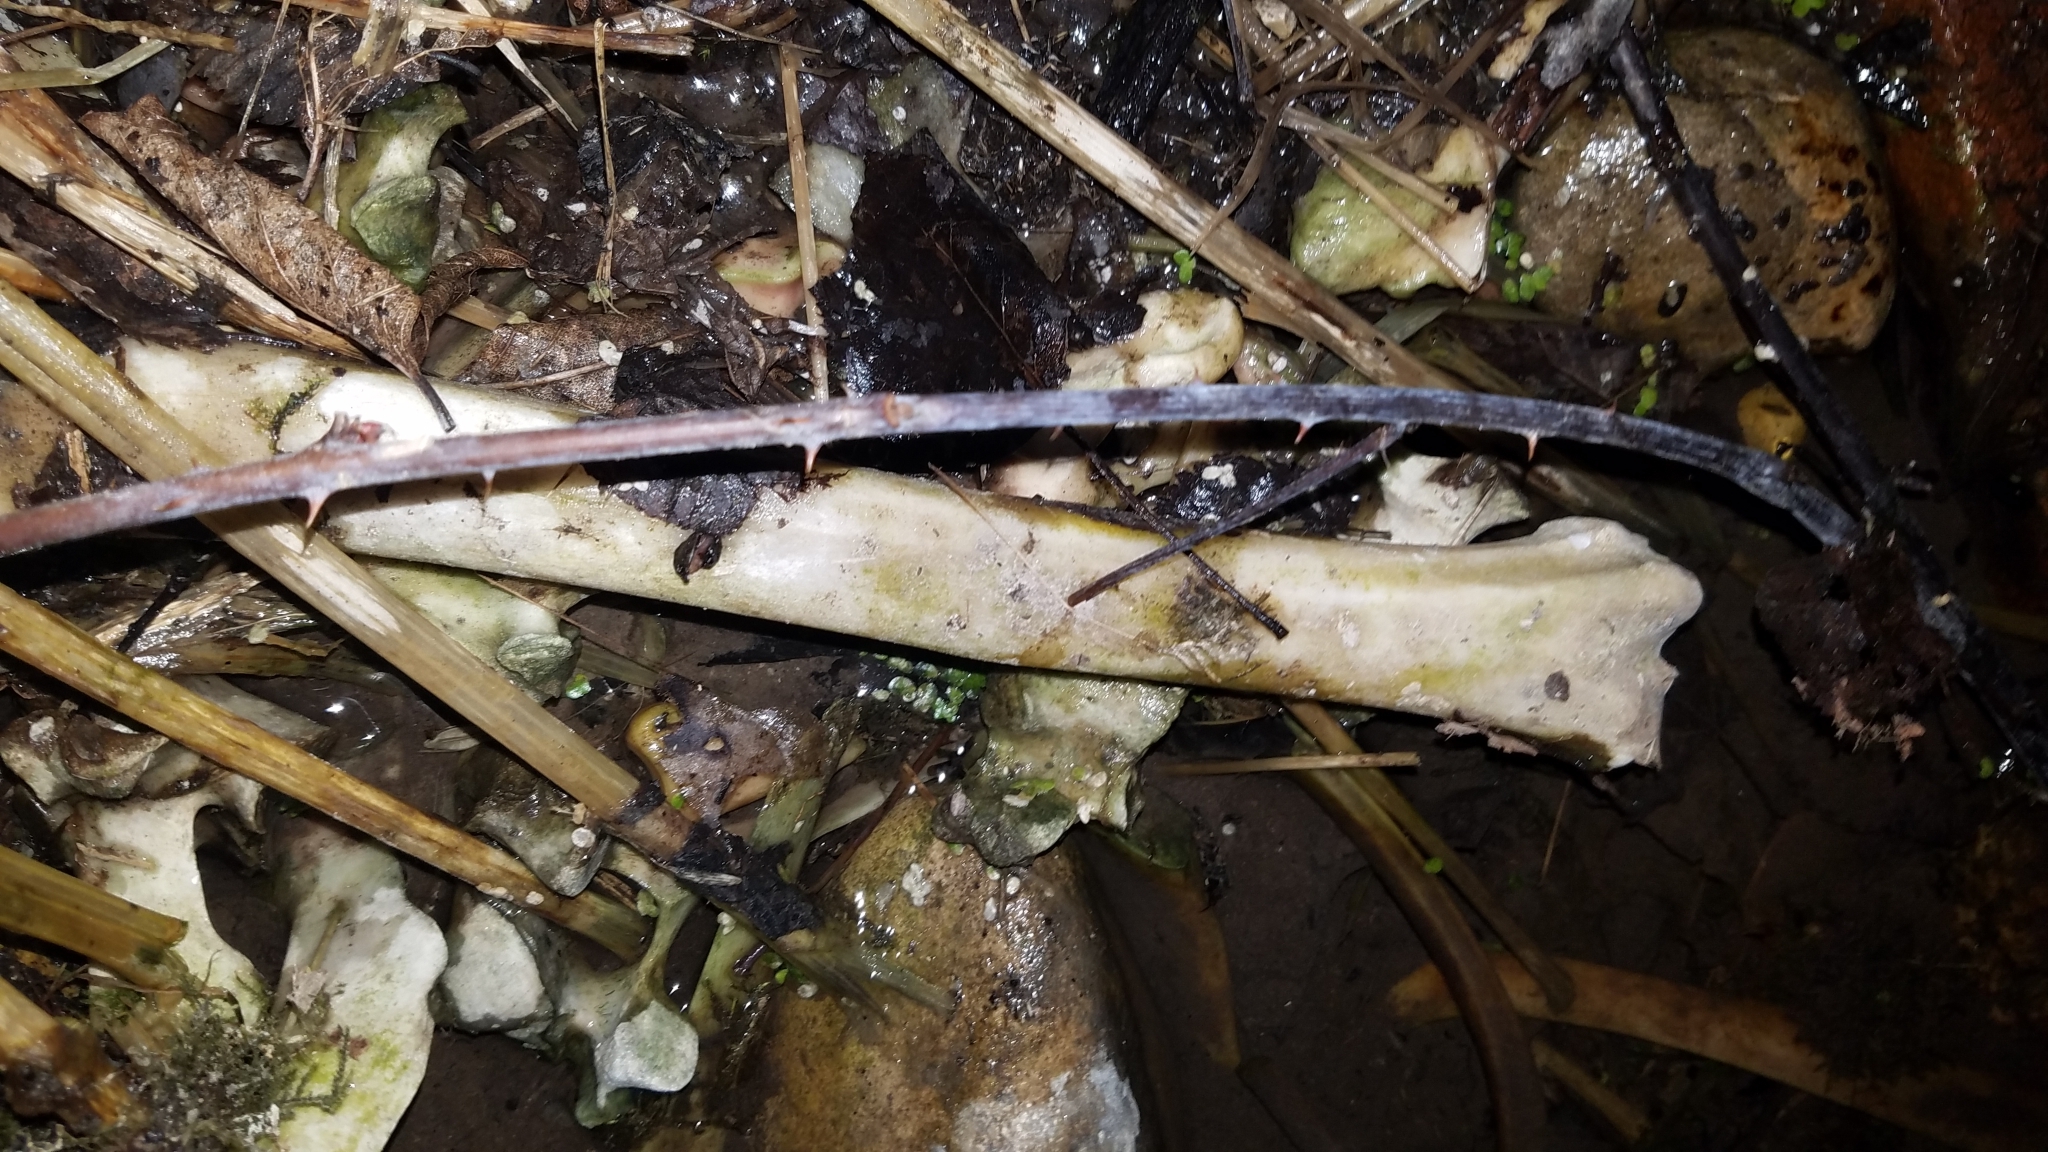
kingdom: Animalia
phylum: Chordata
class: Mammalia
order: Artiodactyla
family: Cervidae
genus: Odocoileus
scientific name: Odocoileus virginianus
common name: White-tailed deer
